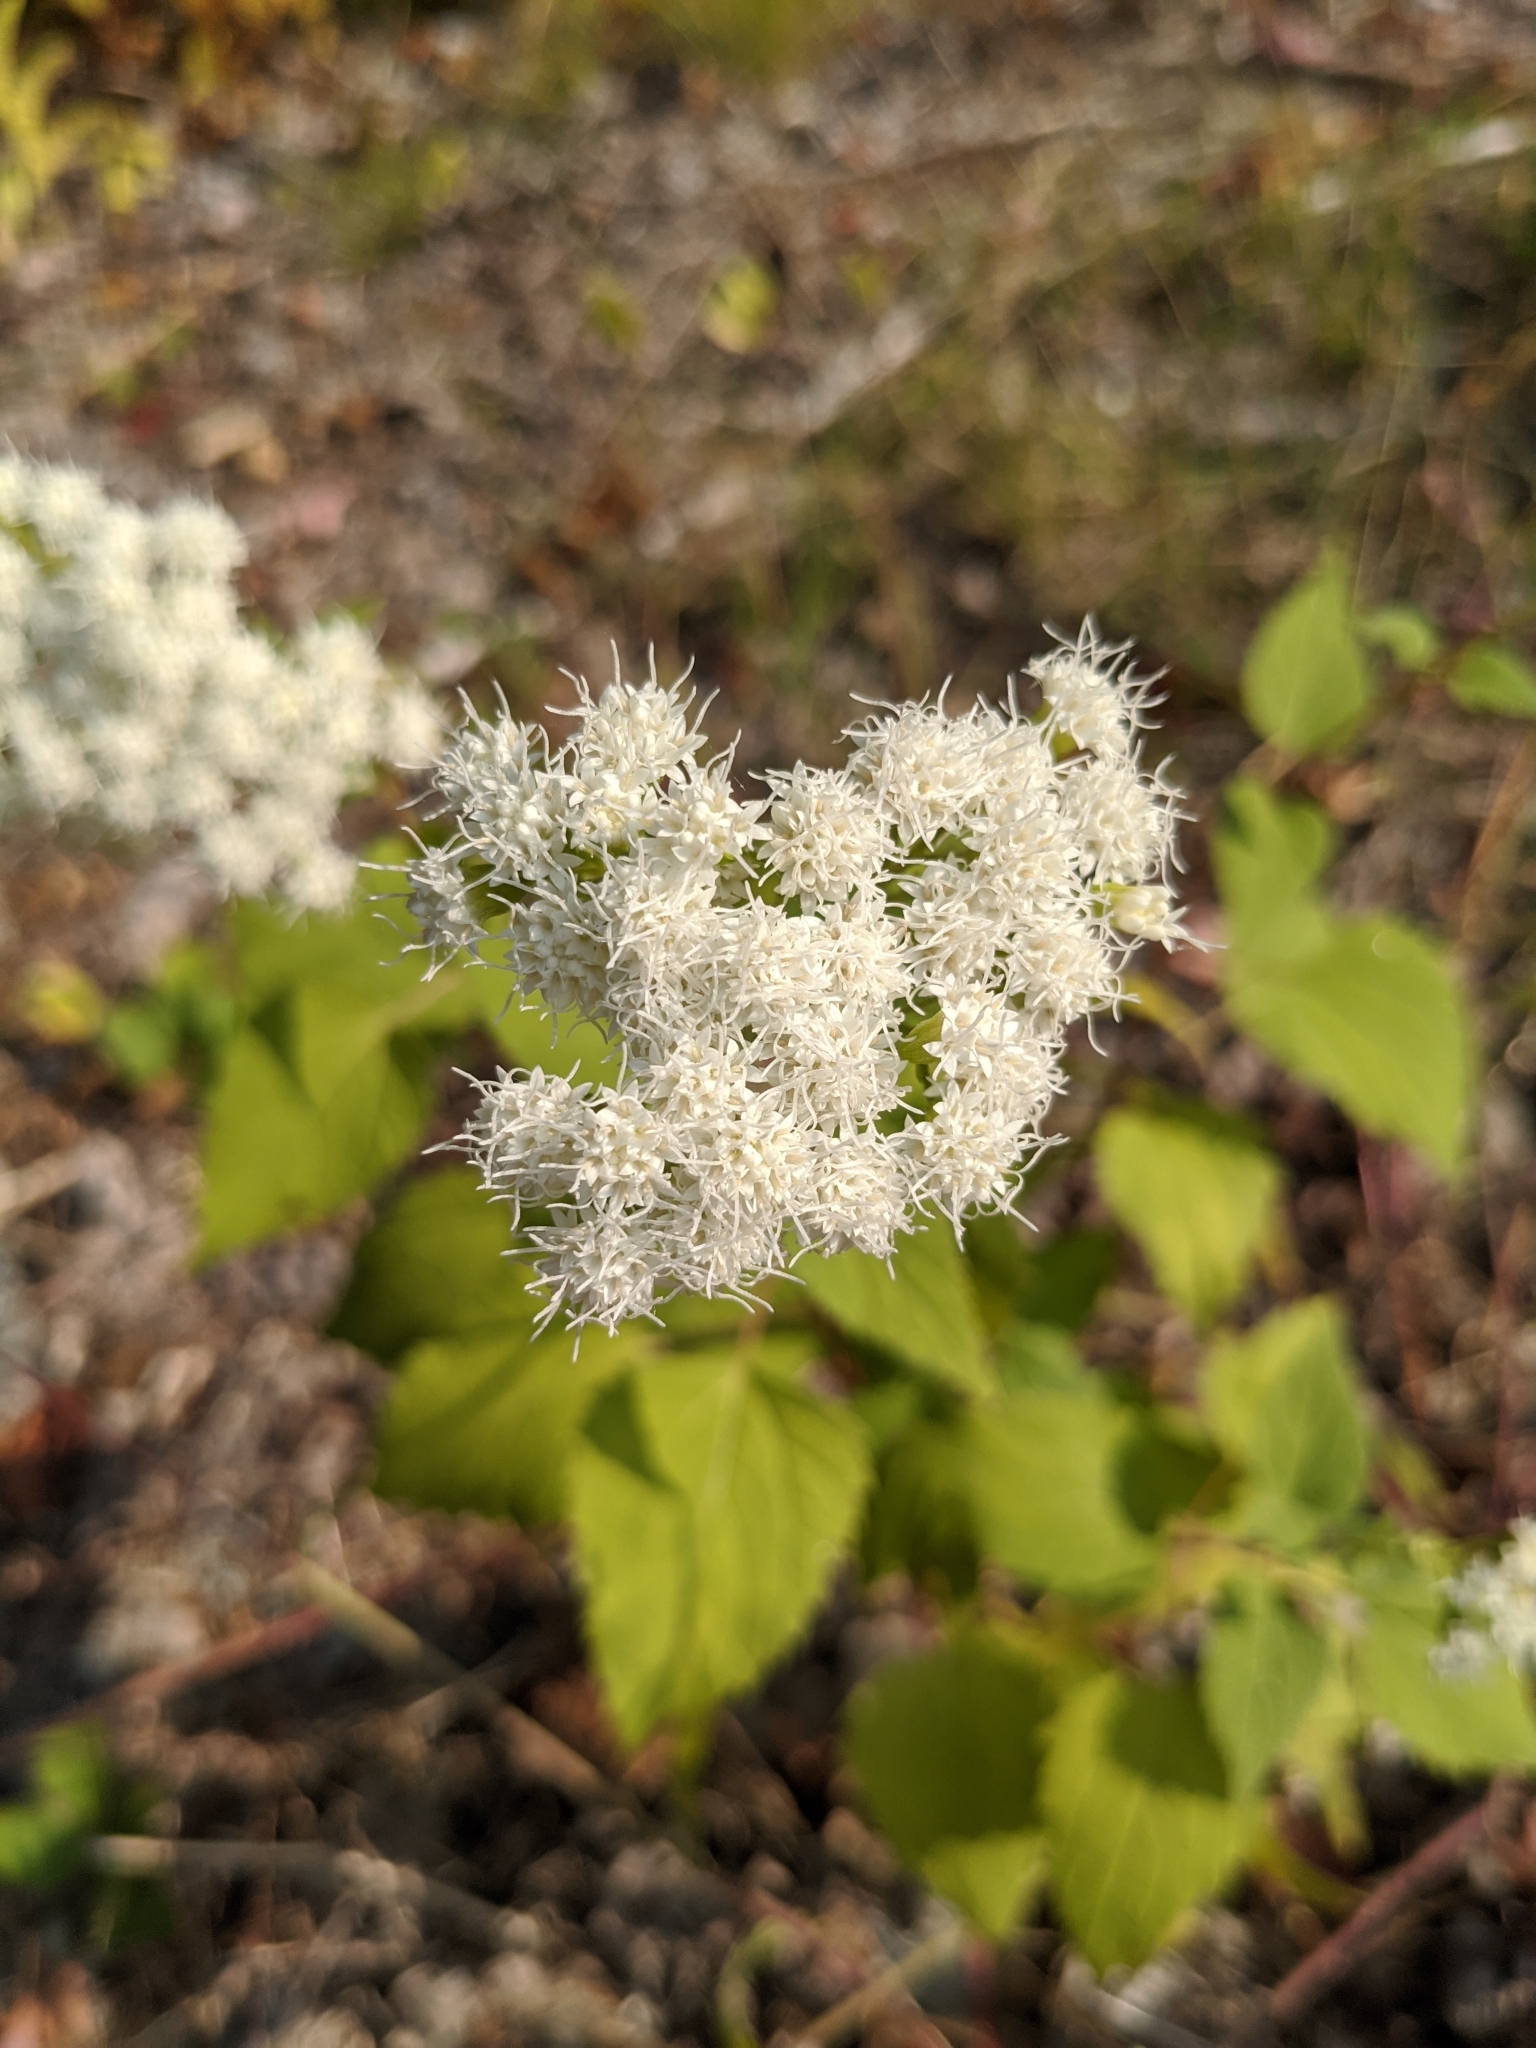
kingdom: Plantae
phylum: Tracheophyta
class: Magnoliopsida
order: Asterales
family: Asteraceae
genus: Ageratina
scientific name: Ageratina altissima
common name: White snakeroot
